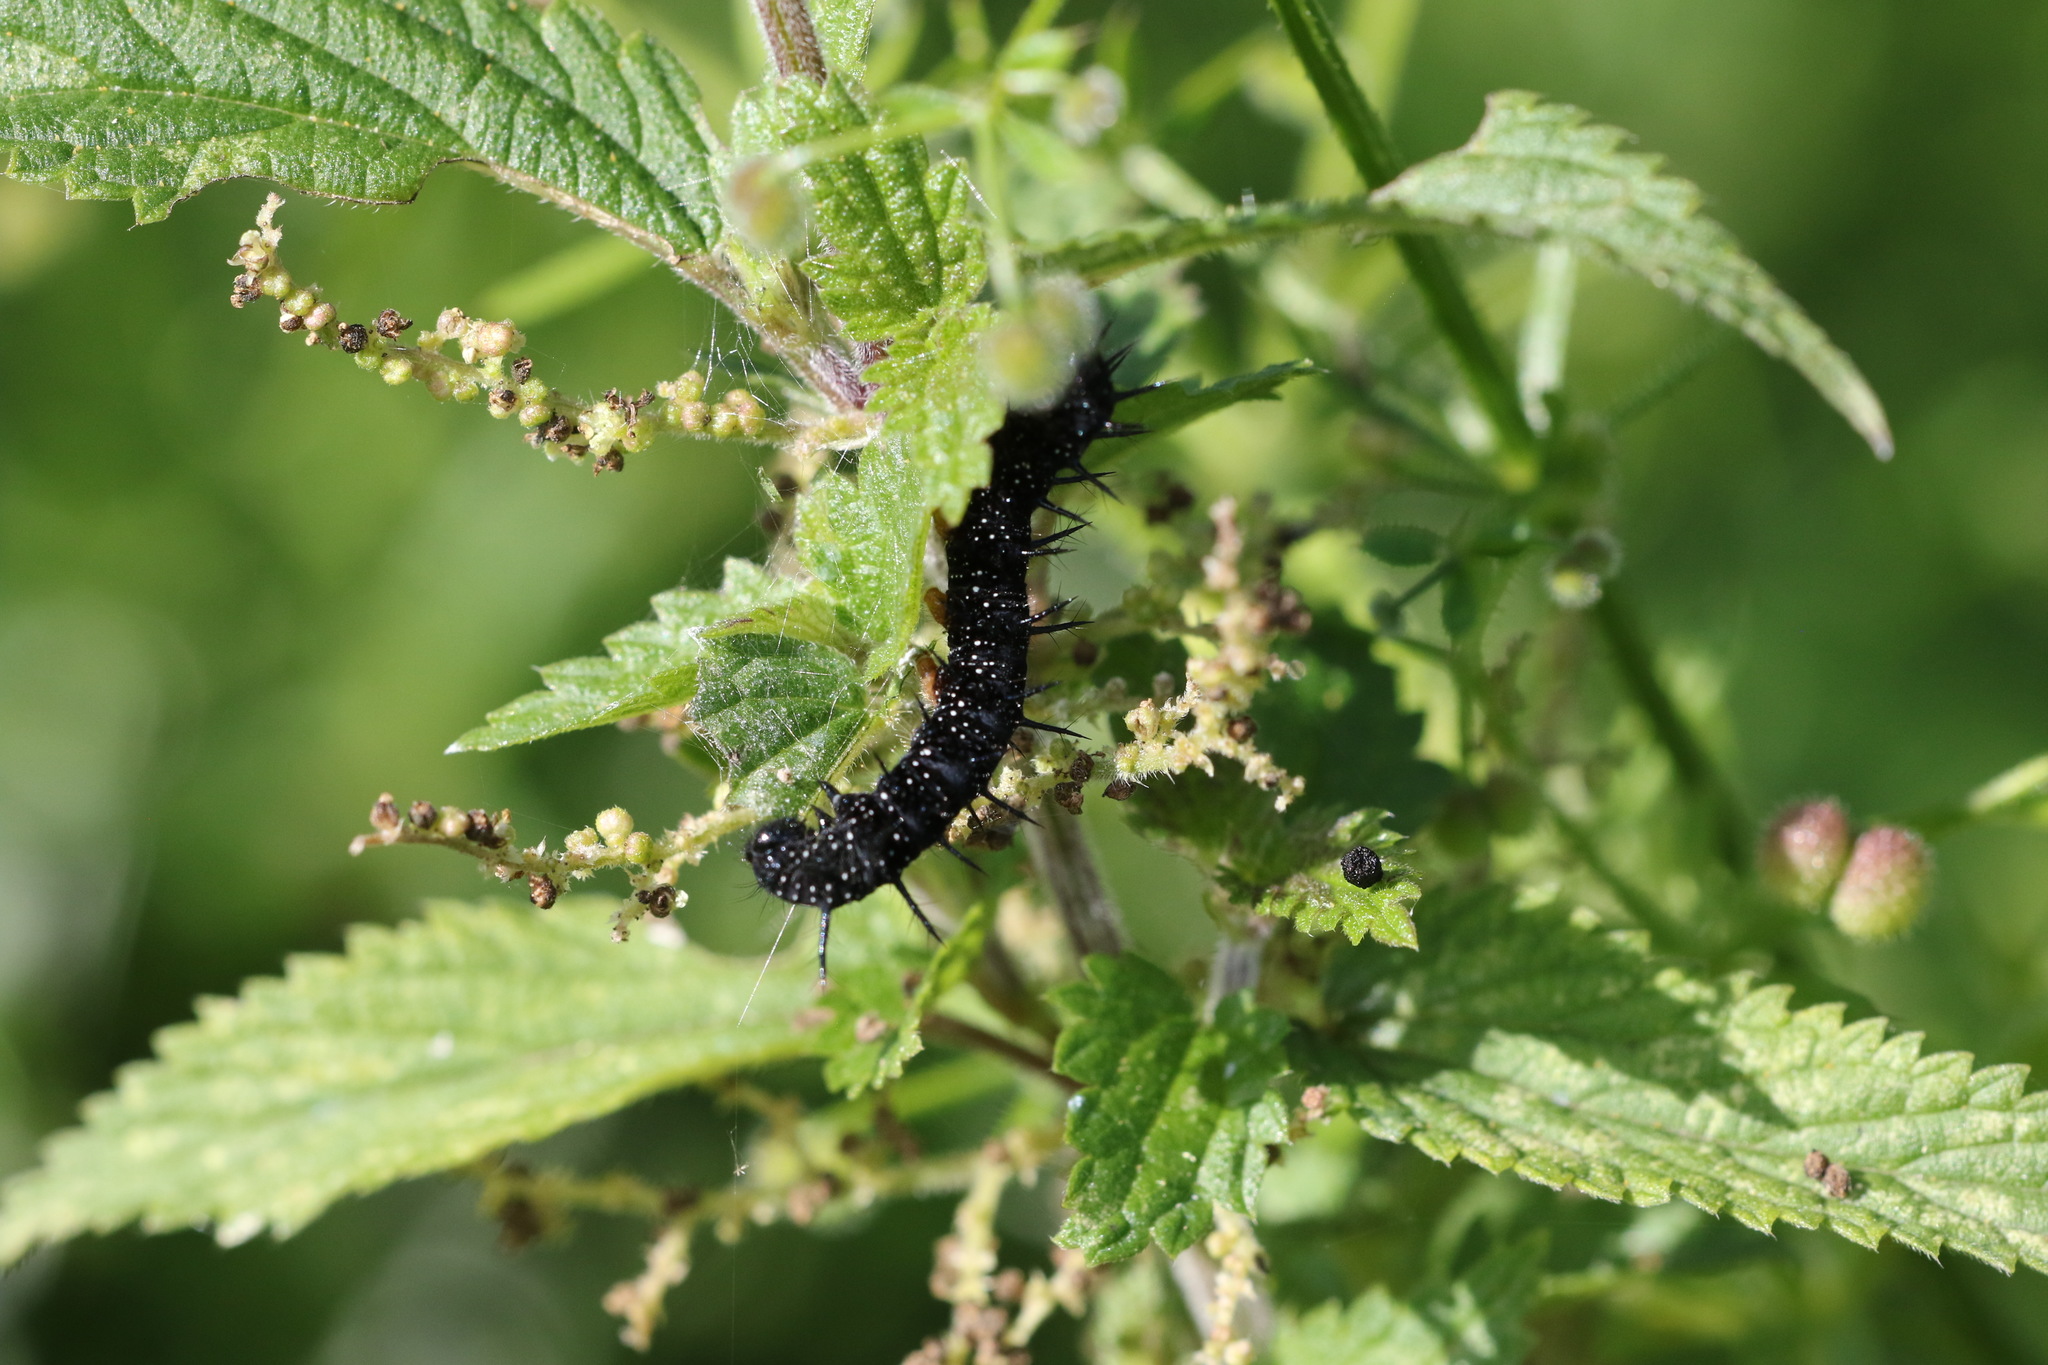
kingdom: Animalia
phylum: Arthropoda
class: Insecta
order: Lepidoptera
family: Nymphalidae
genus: Aglais
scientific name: Aglais io
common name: Peacock
